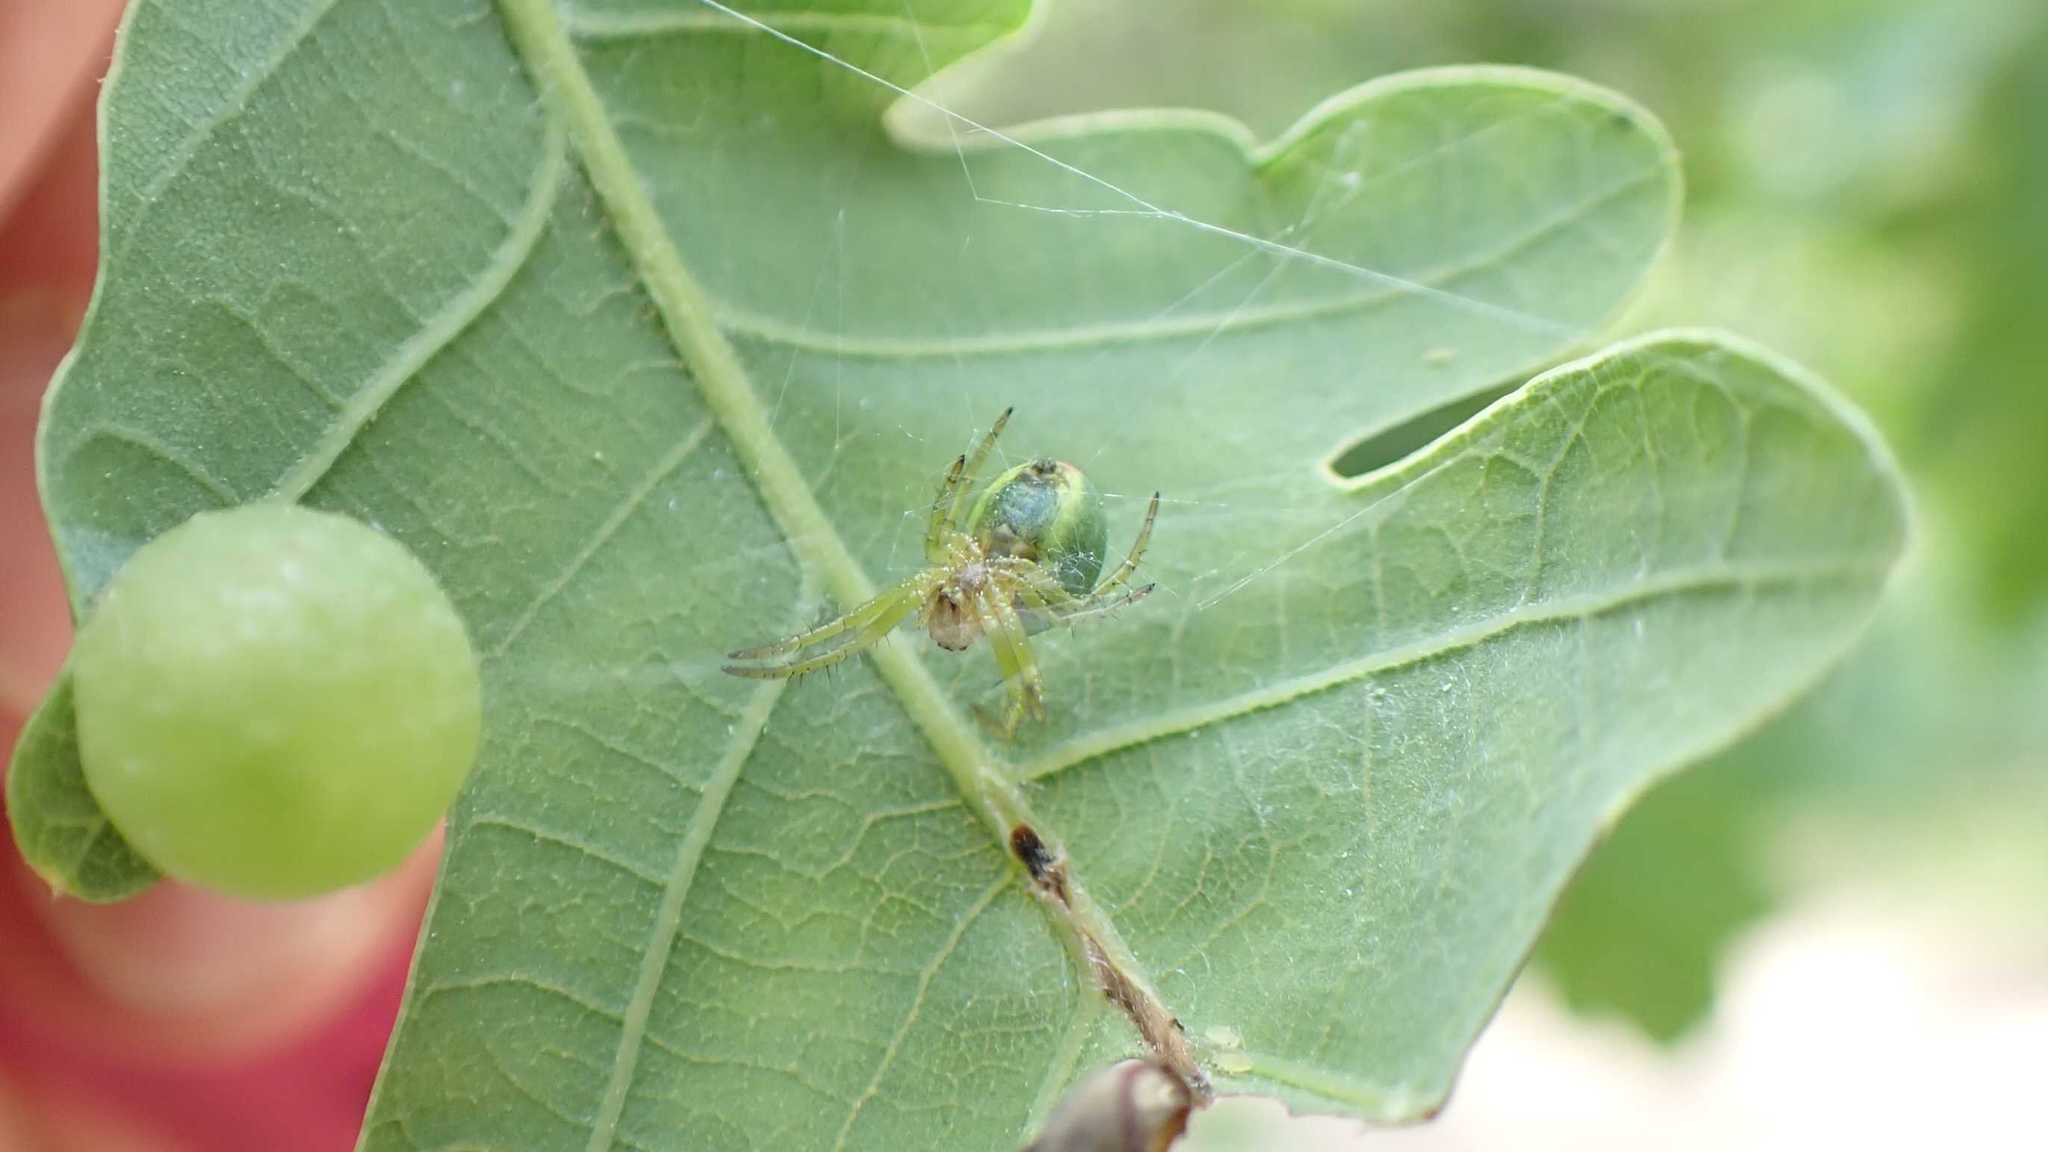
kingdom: Animalia
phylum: Arthropoda
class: Arachnida
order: Araneae
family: Araneidae
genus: Araniella
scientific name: Araniella
